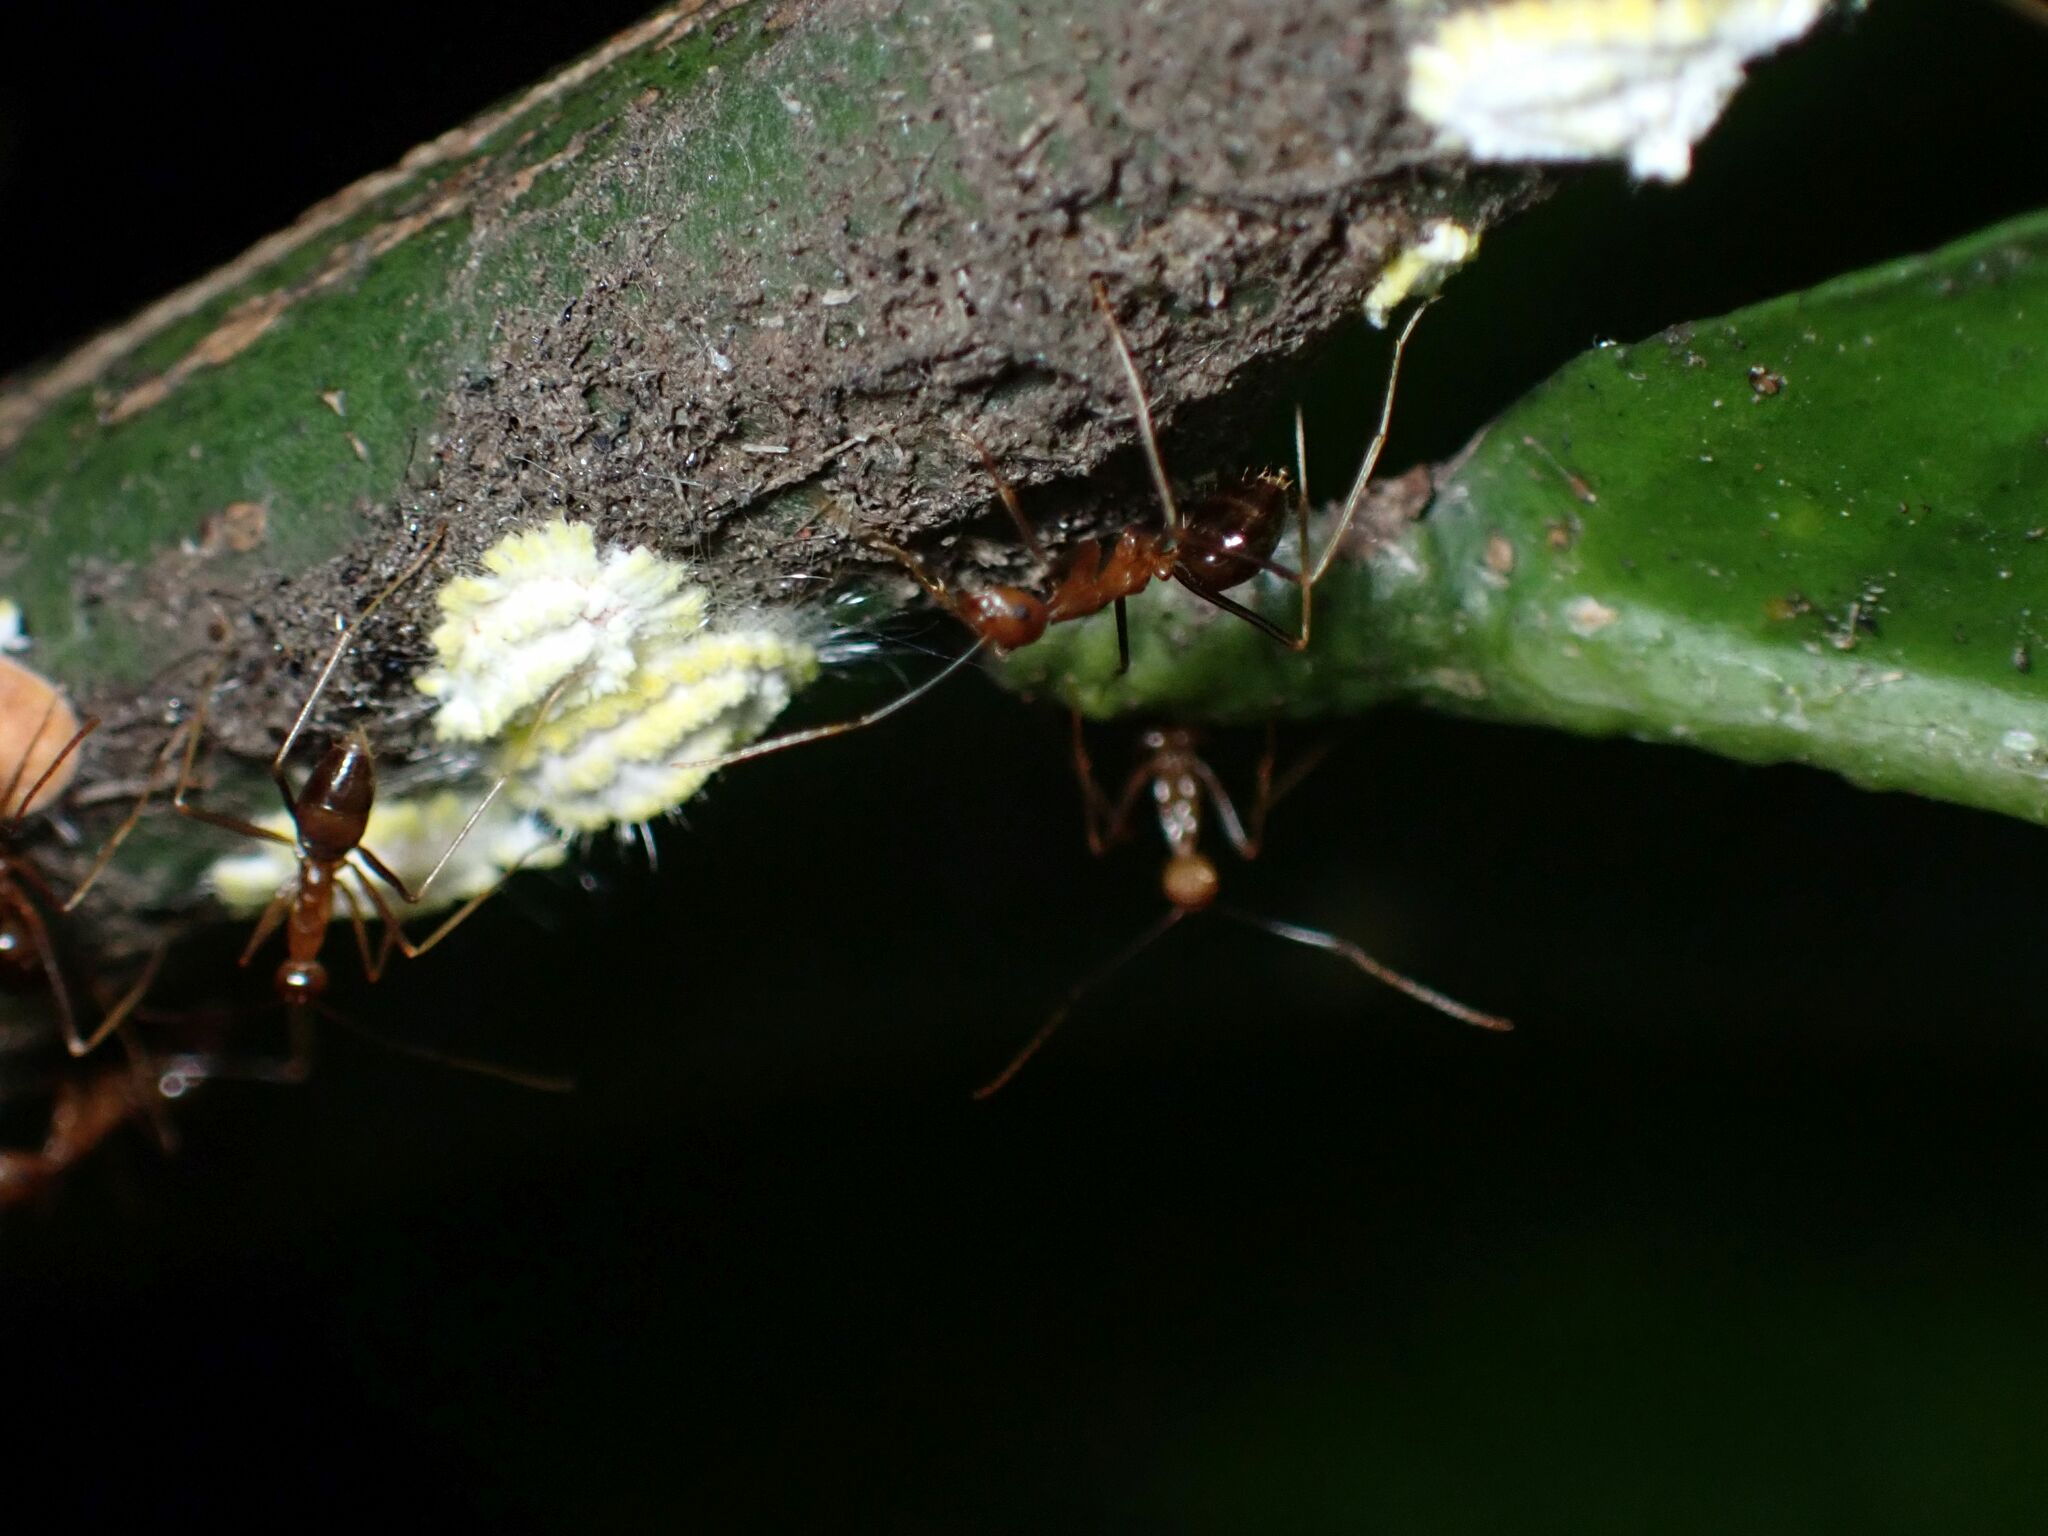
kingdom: Animalia
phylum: Arthropoda
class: Insecta
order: Hymenoptera
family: Formicidae
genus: Anoplolepis
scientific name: Anoplolepis gracilipes
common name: Ant
